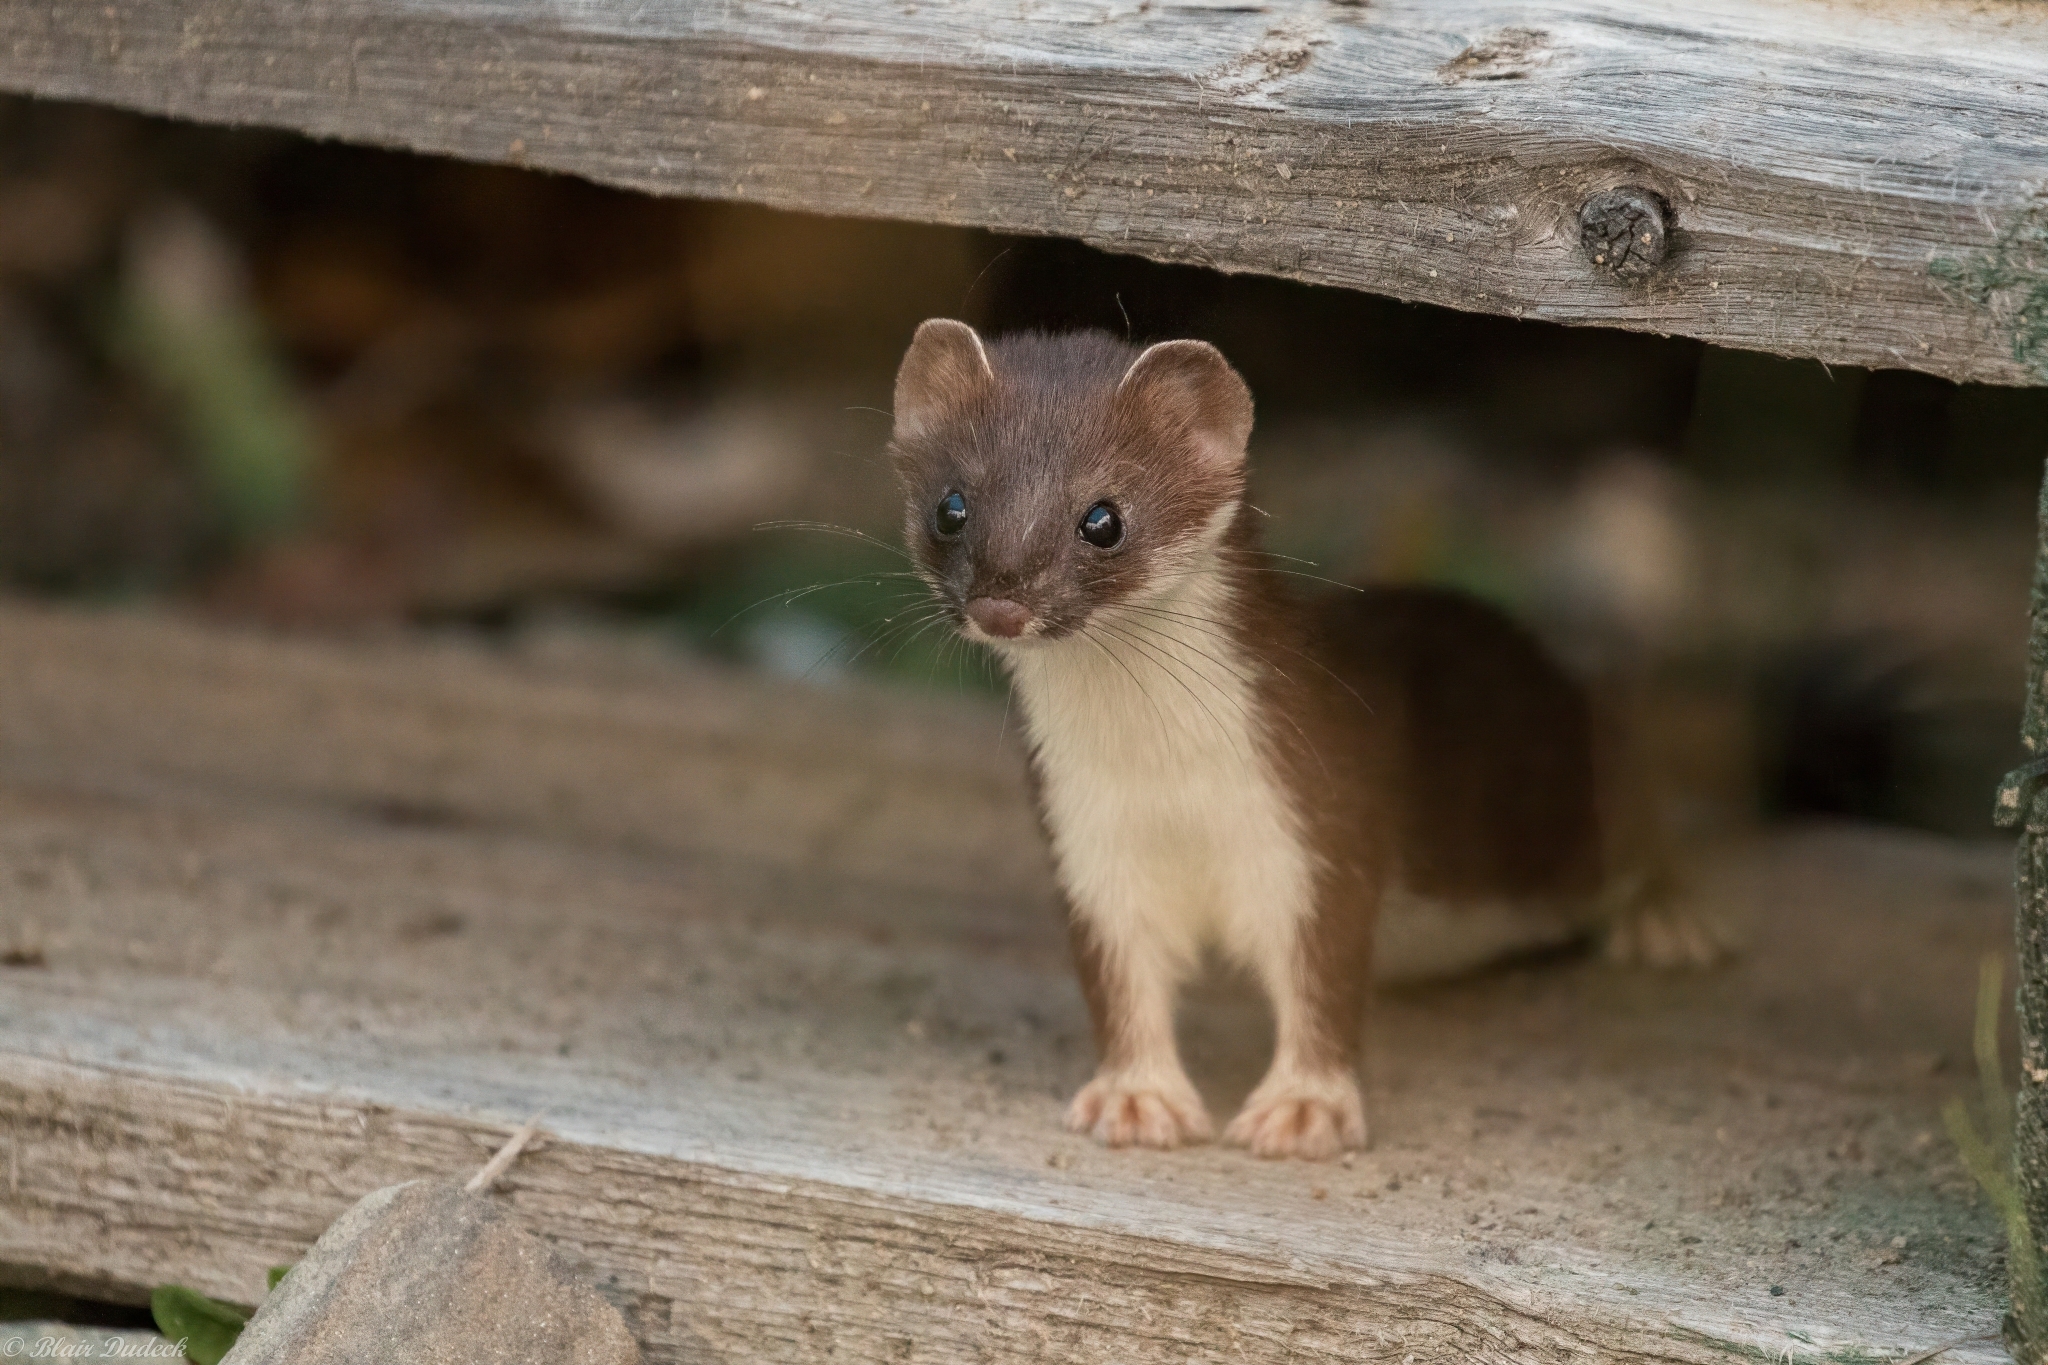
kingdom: Animalia
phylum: Chordata
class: Mammalia
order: Carnivora
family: Mustelidae
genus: Mustela
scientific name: Mustela erminea
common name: Stoat
